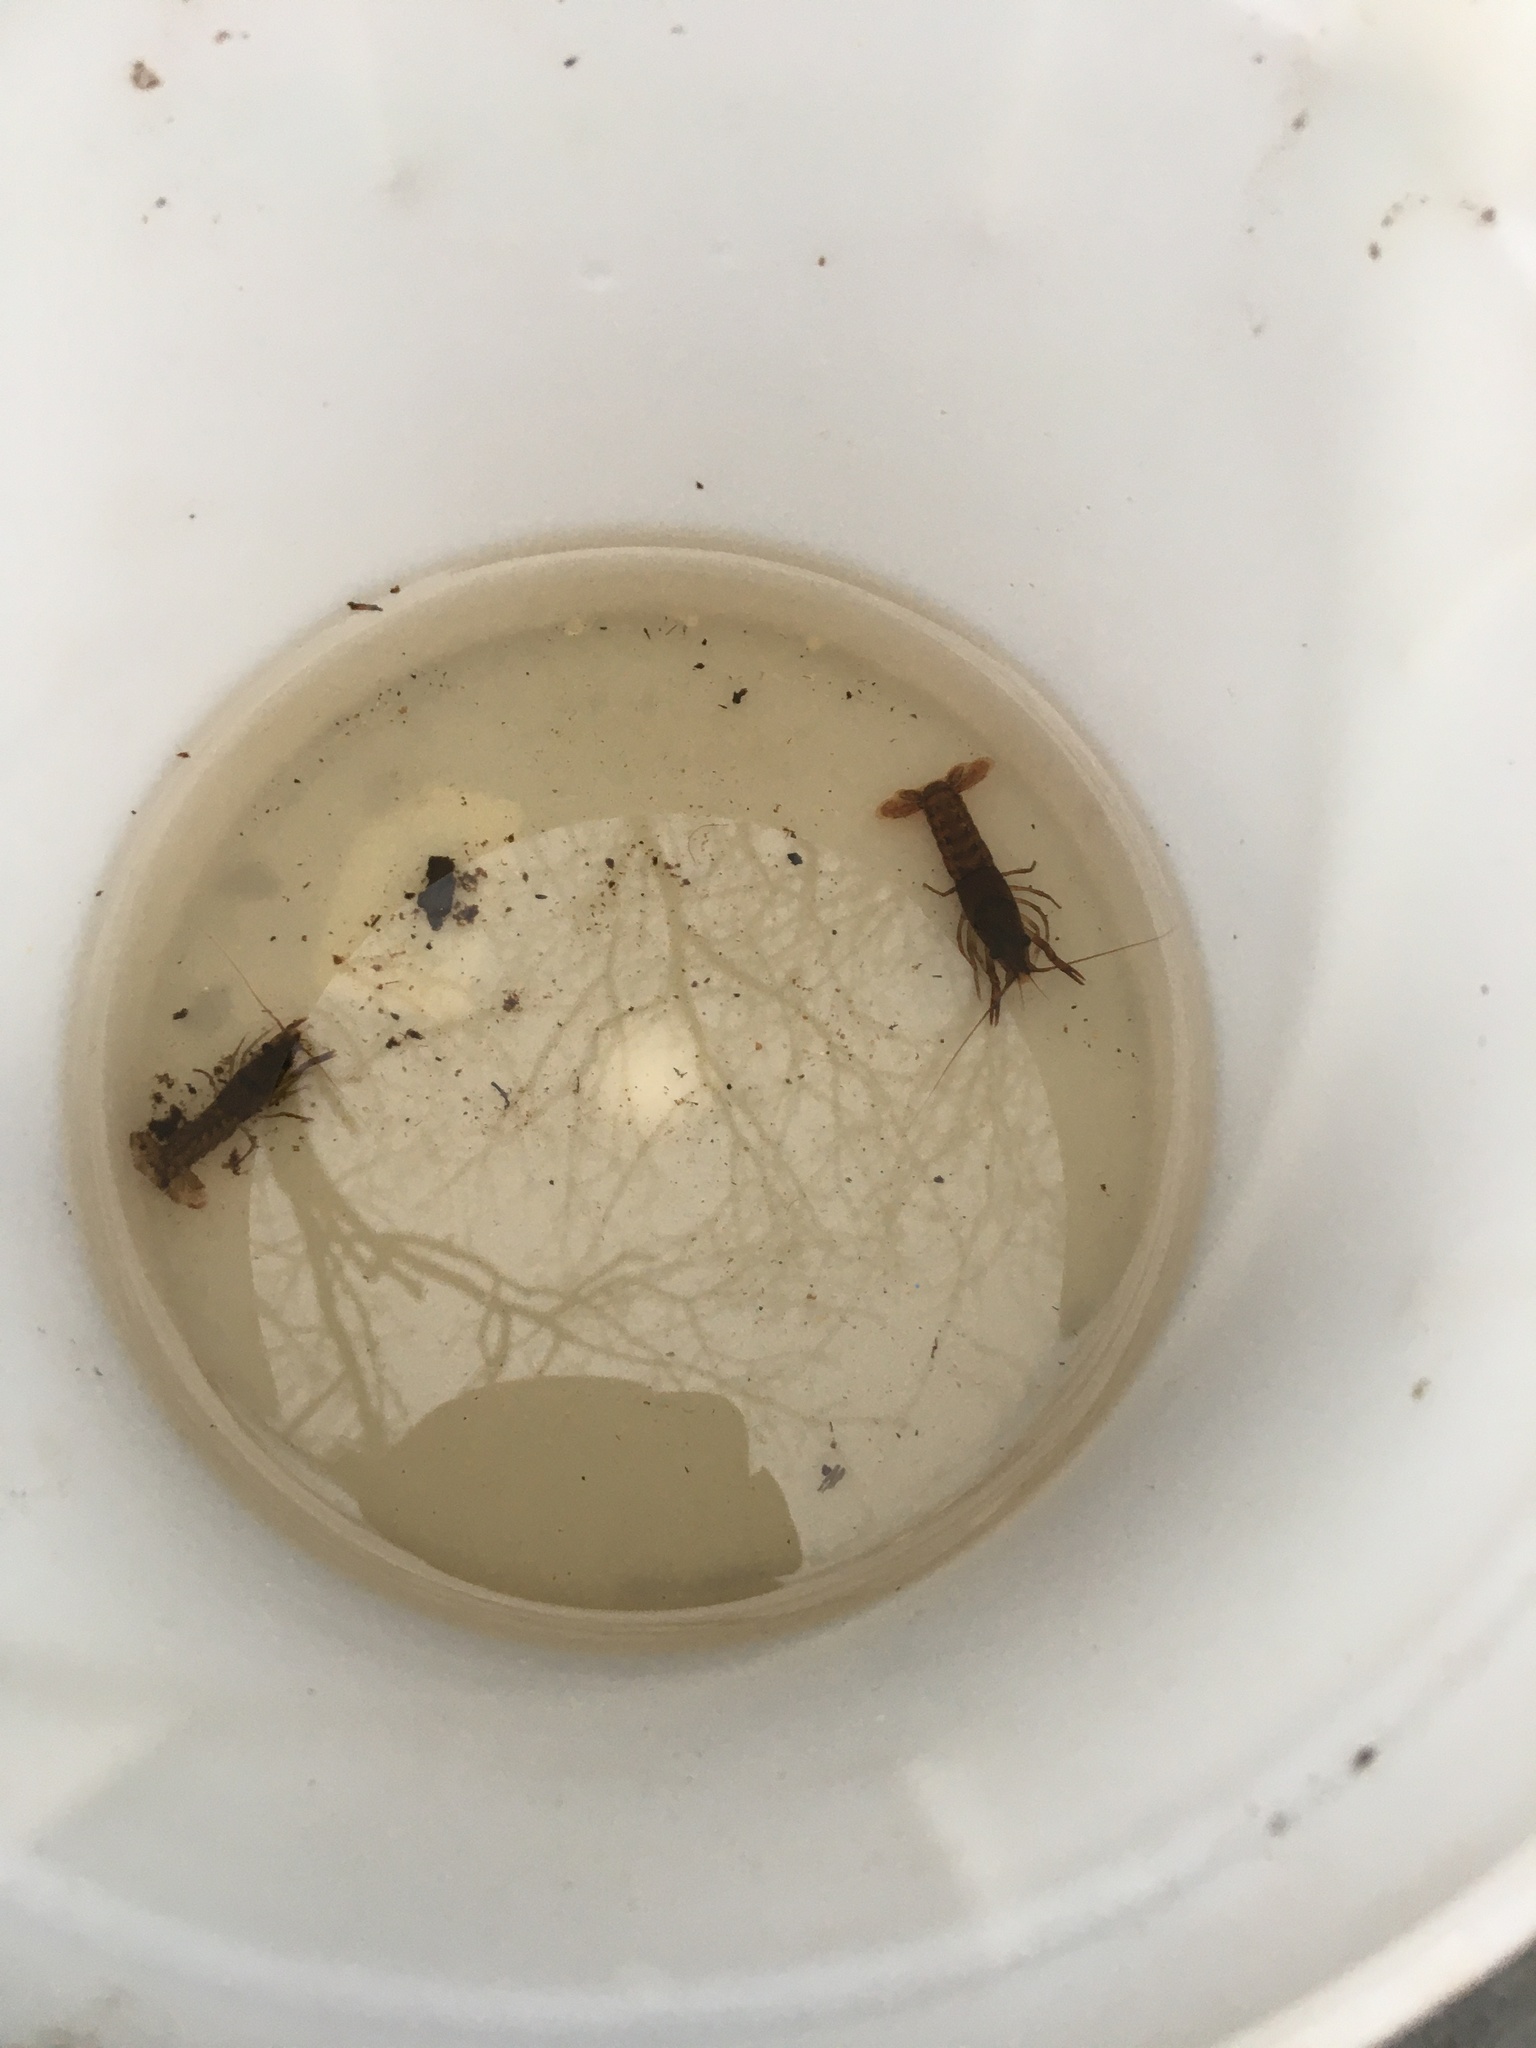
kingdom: Animalia
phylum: Arthropoda
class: Malacostraca
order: Decapoda
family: Cambaridae
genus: Procambarus
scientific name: Procambarus acutus
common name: White river crayfish
